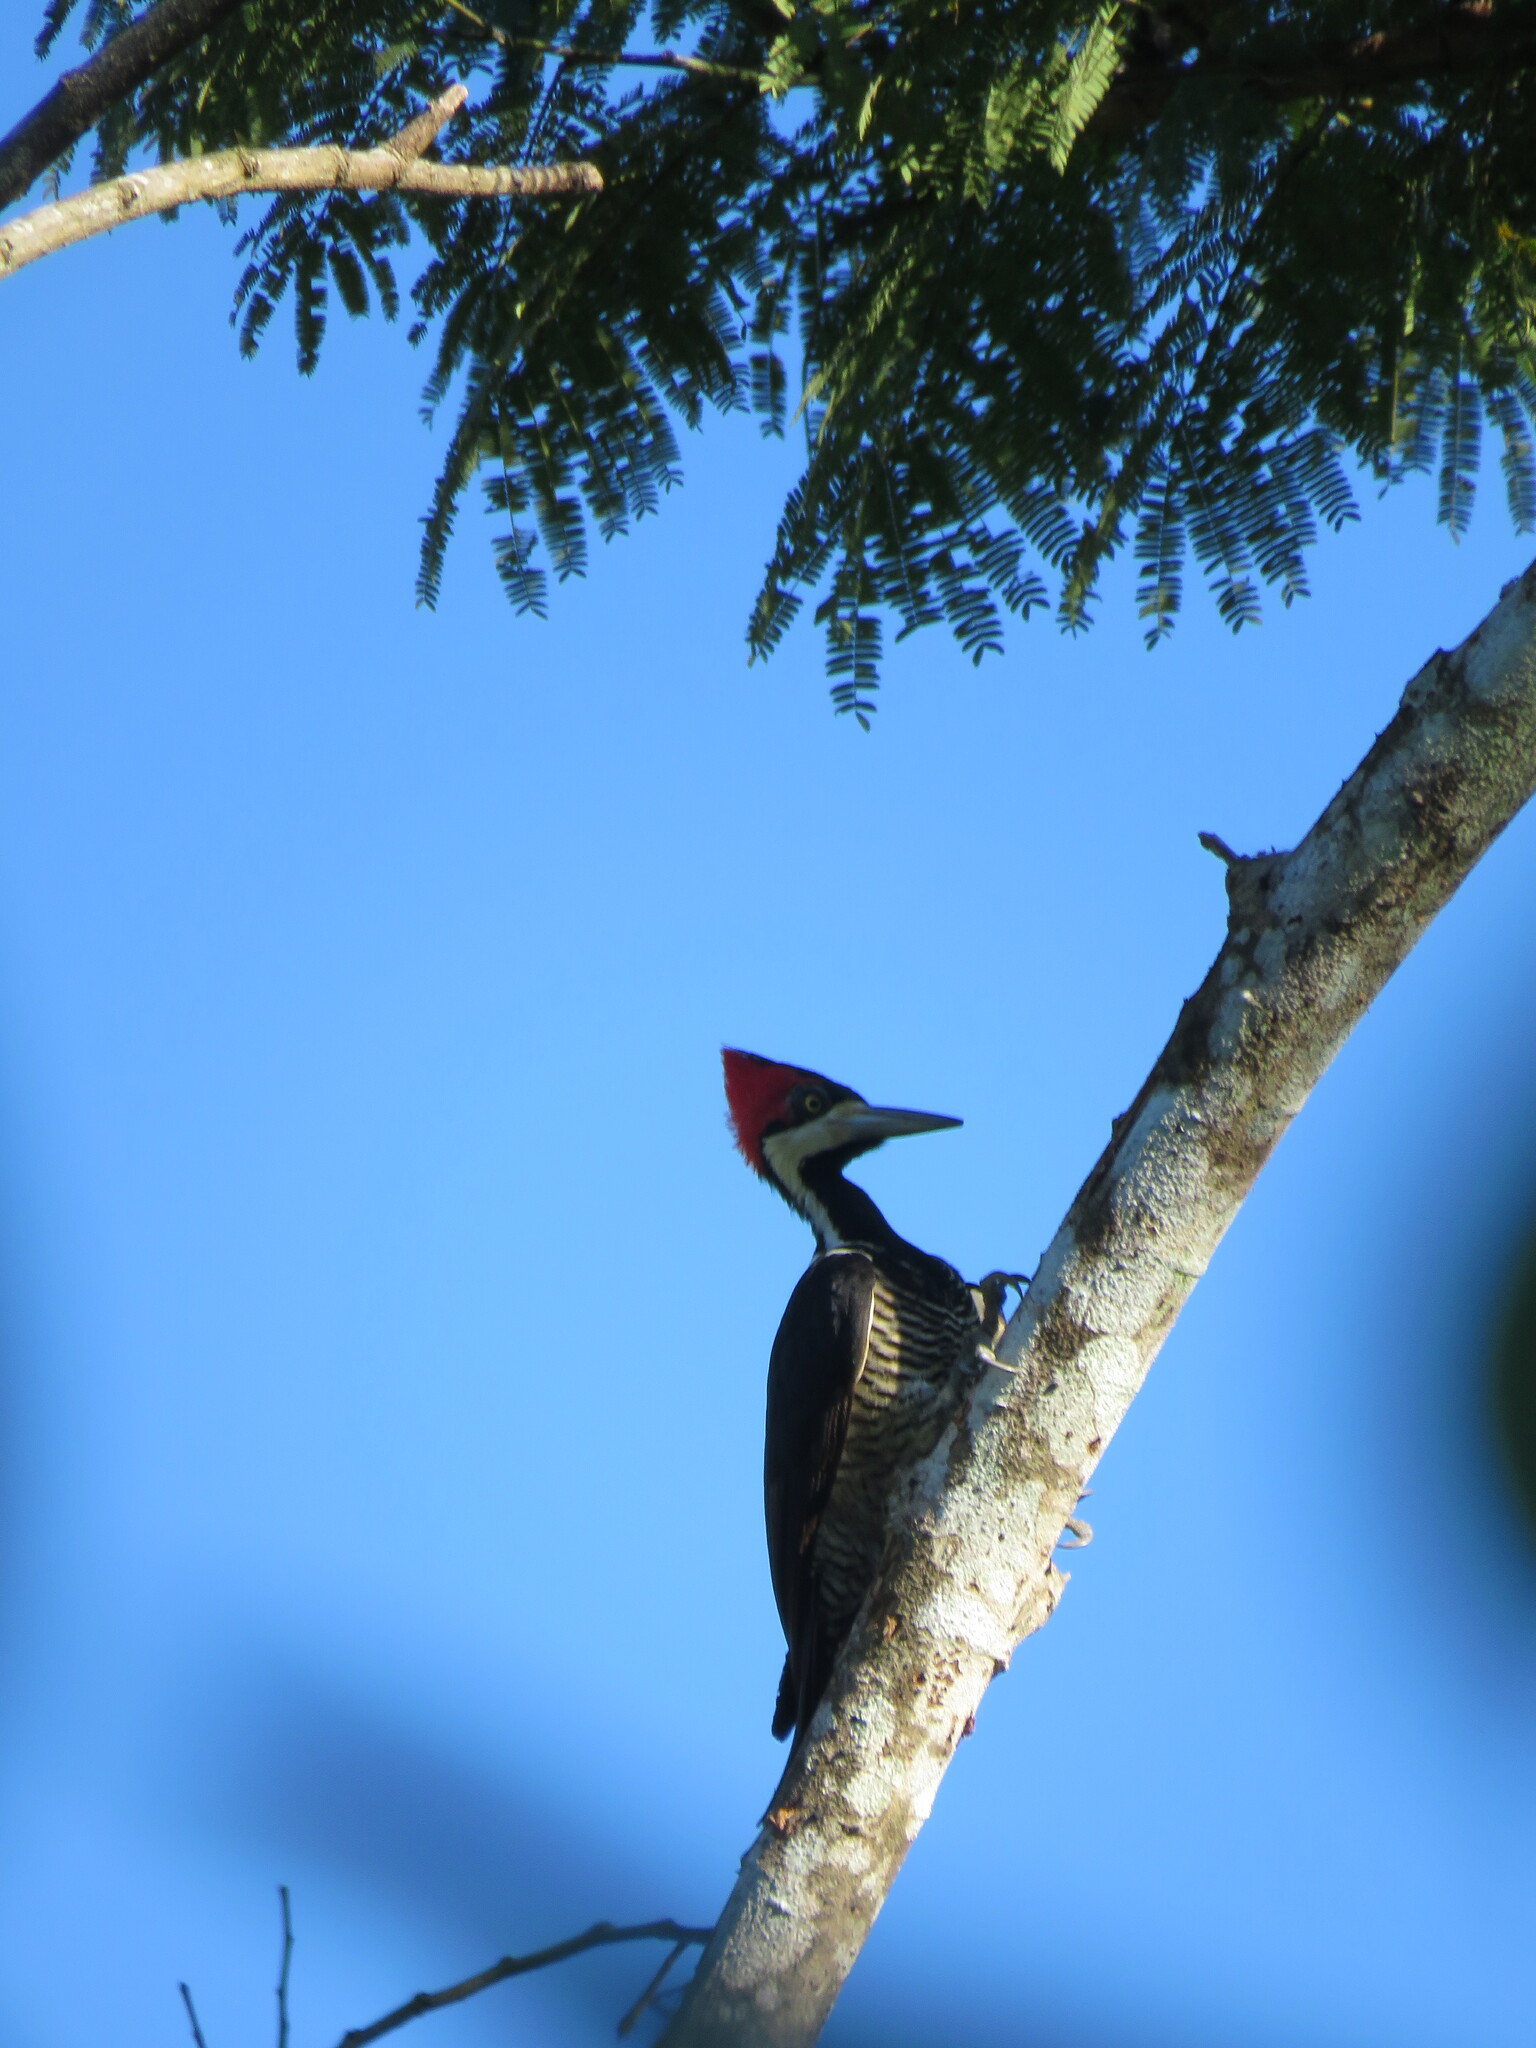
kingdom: Animalia
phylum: Chordata
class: Aves
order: Piciformes
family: Picidae
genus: Campephilus
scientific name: Campephilus melanoleucos
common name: Crimson-crested woodpecker
